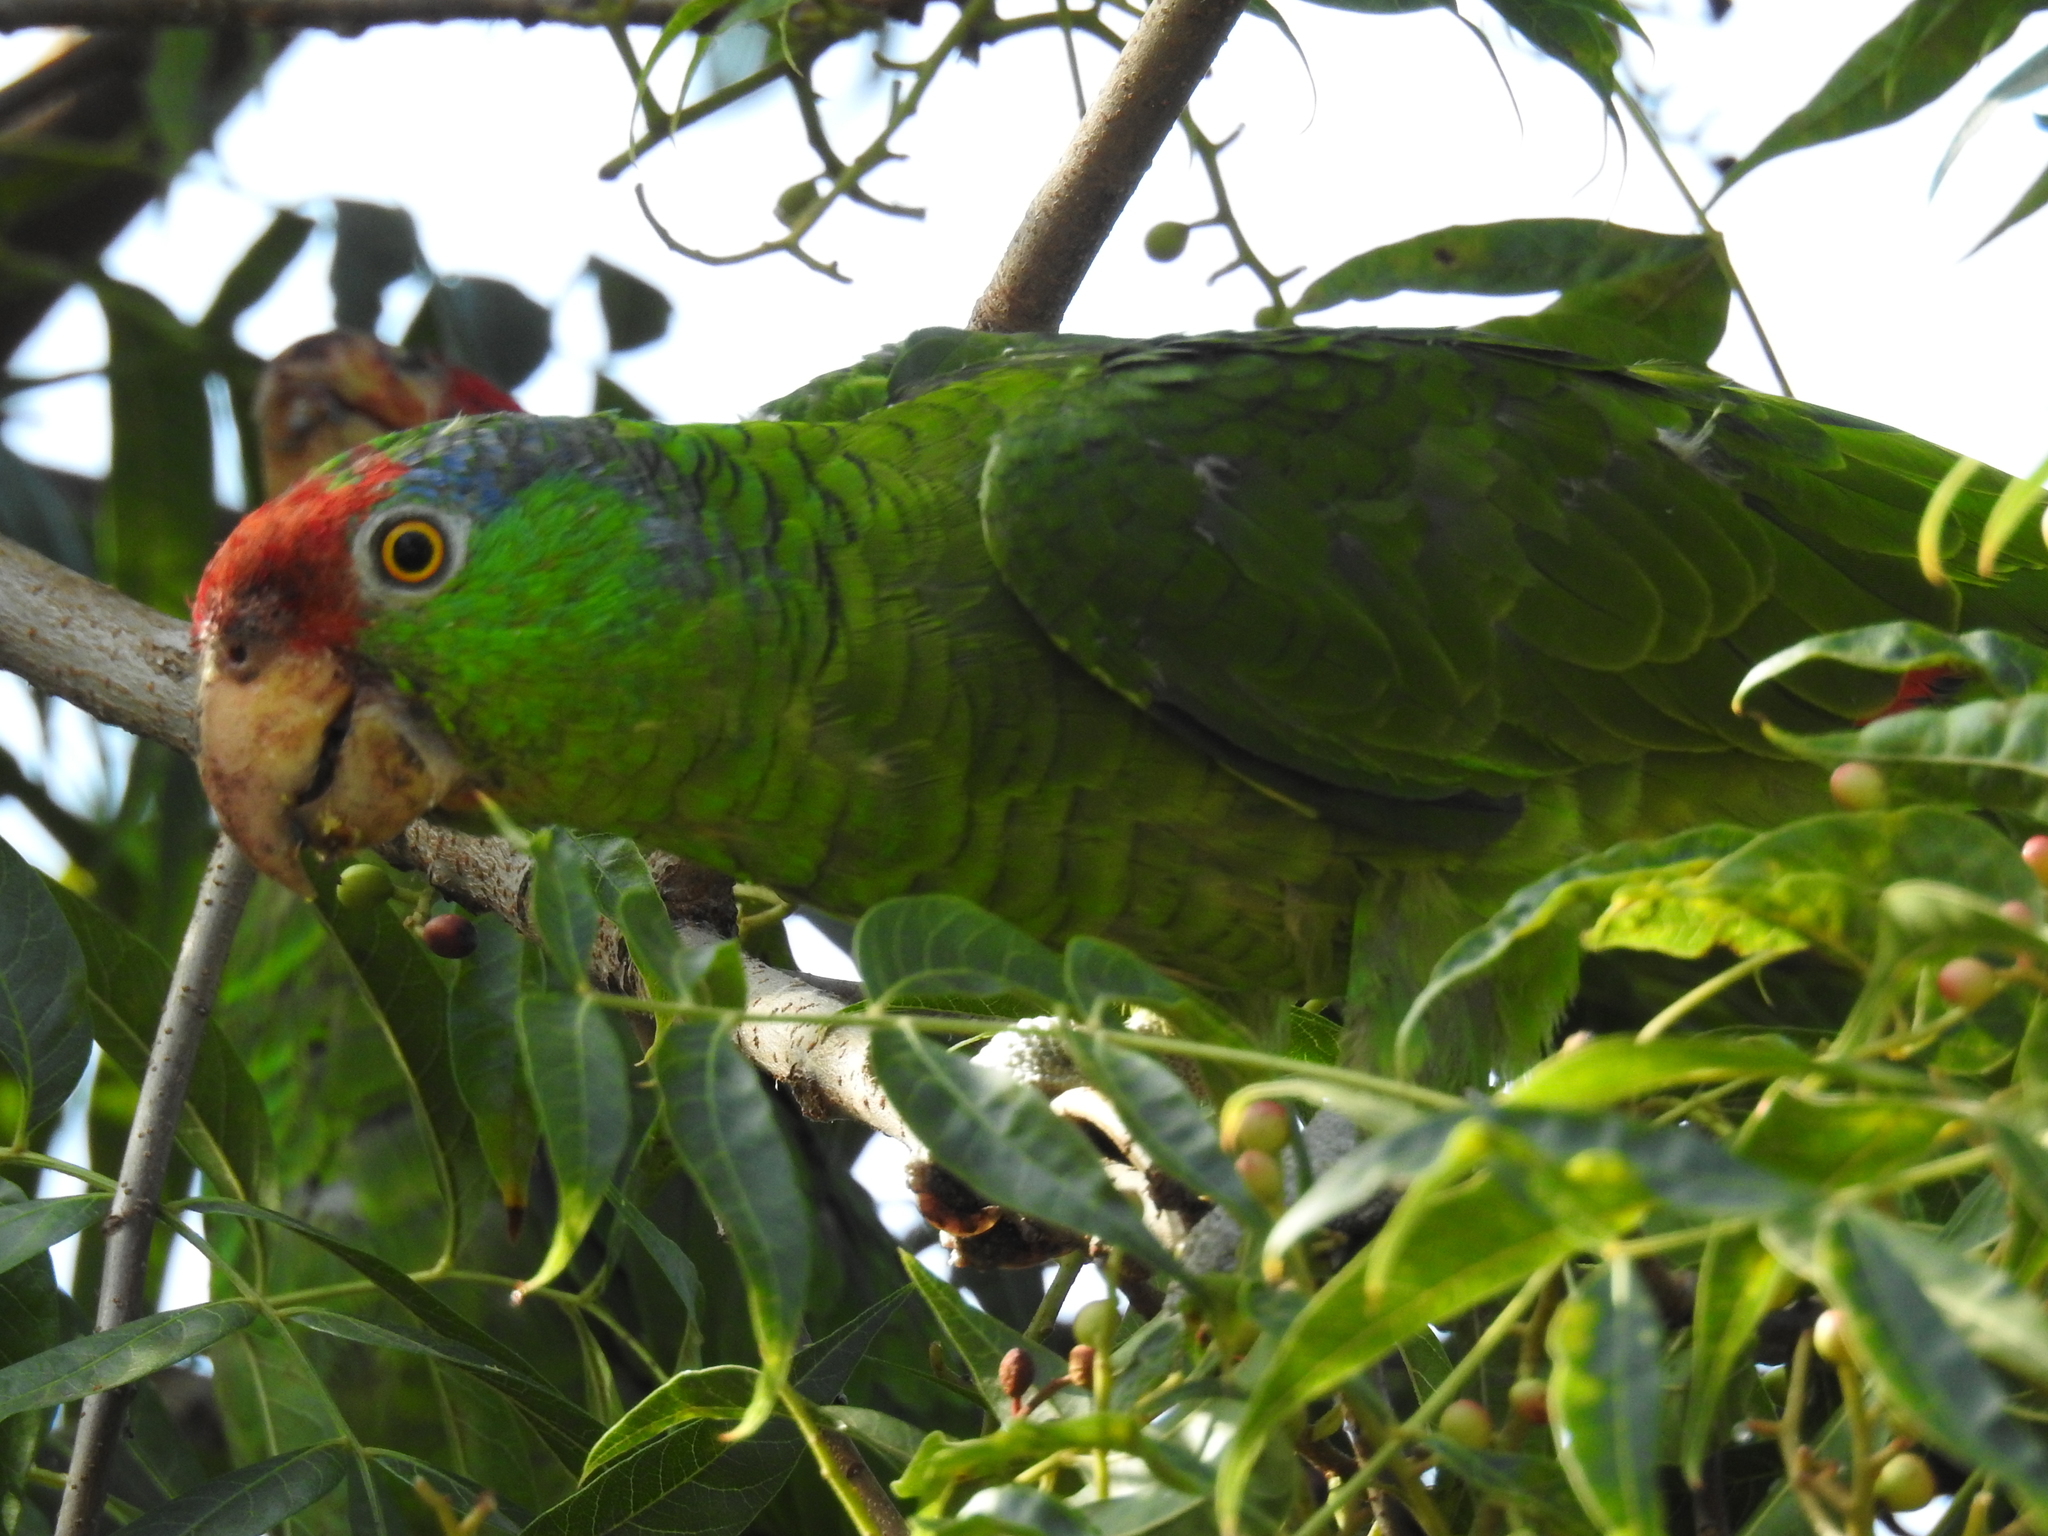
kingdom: Animalia
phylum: Chordata
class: Aves
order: Psittaciformes
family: Psittacidae
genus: Amazona
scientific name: Amazona viridigenalis
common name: Red-crowned amazon
